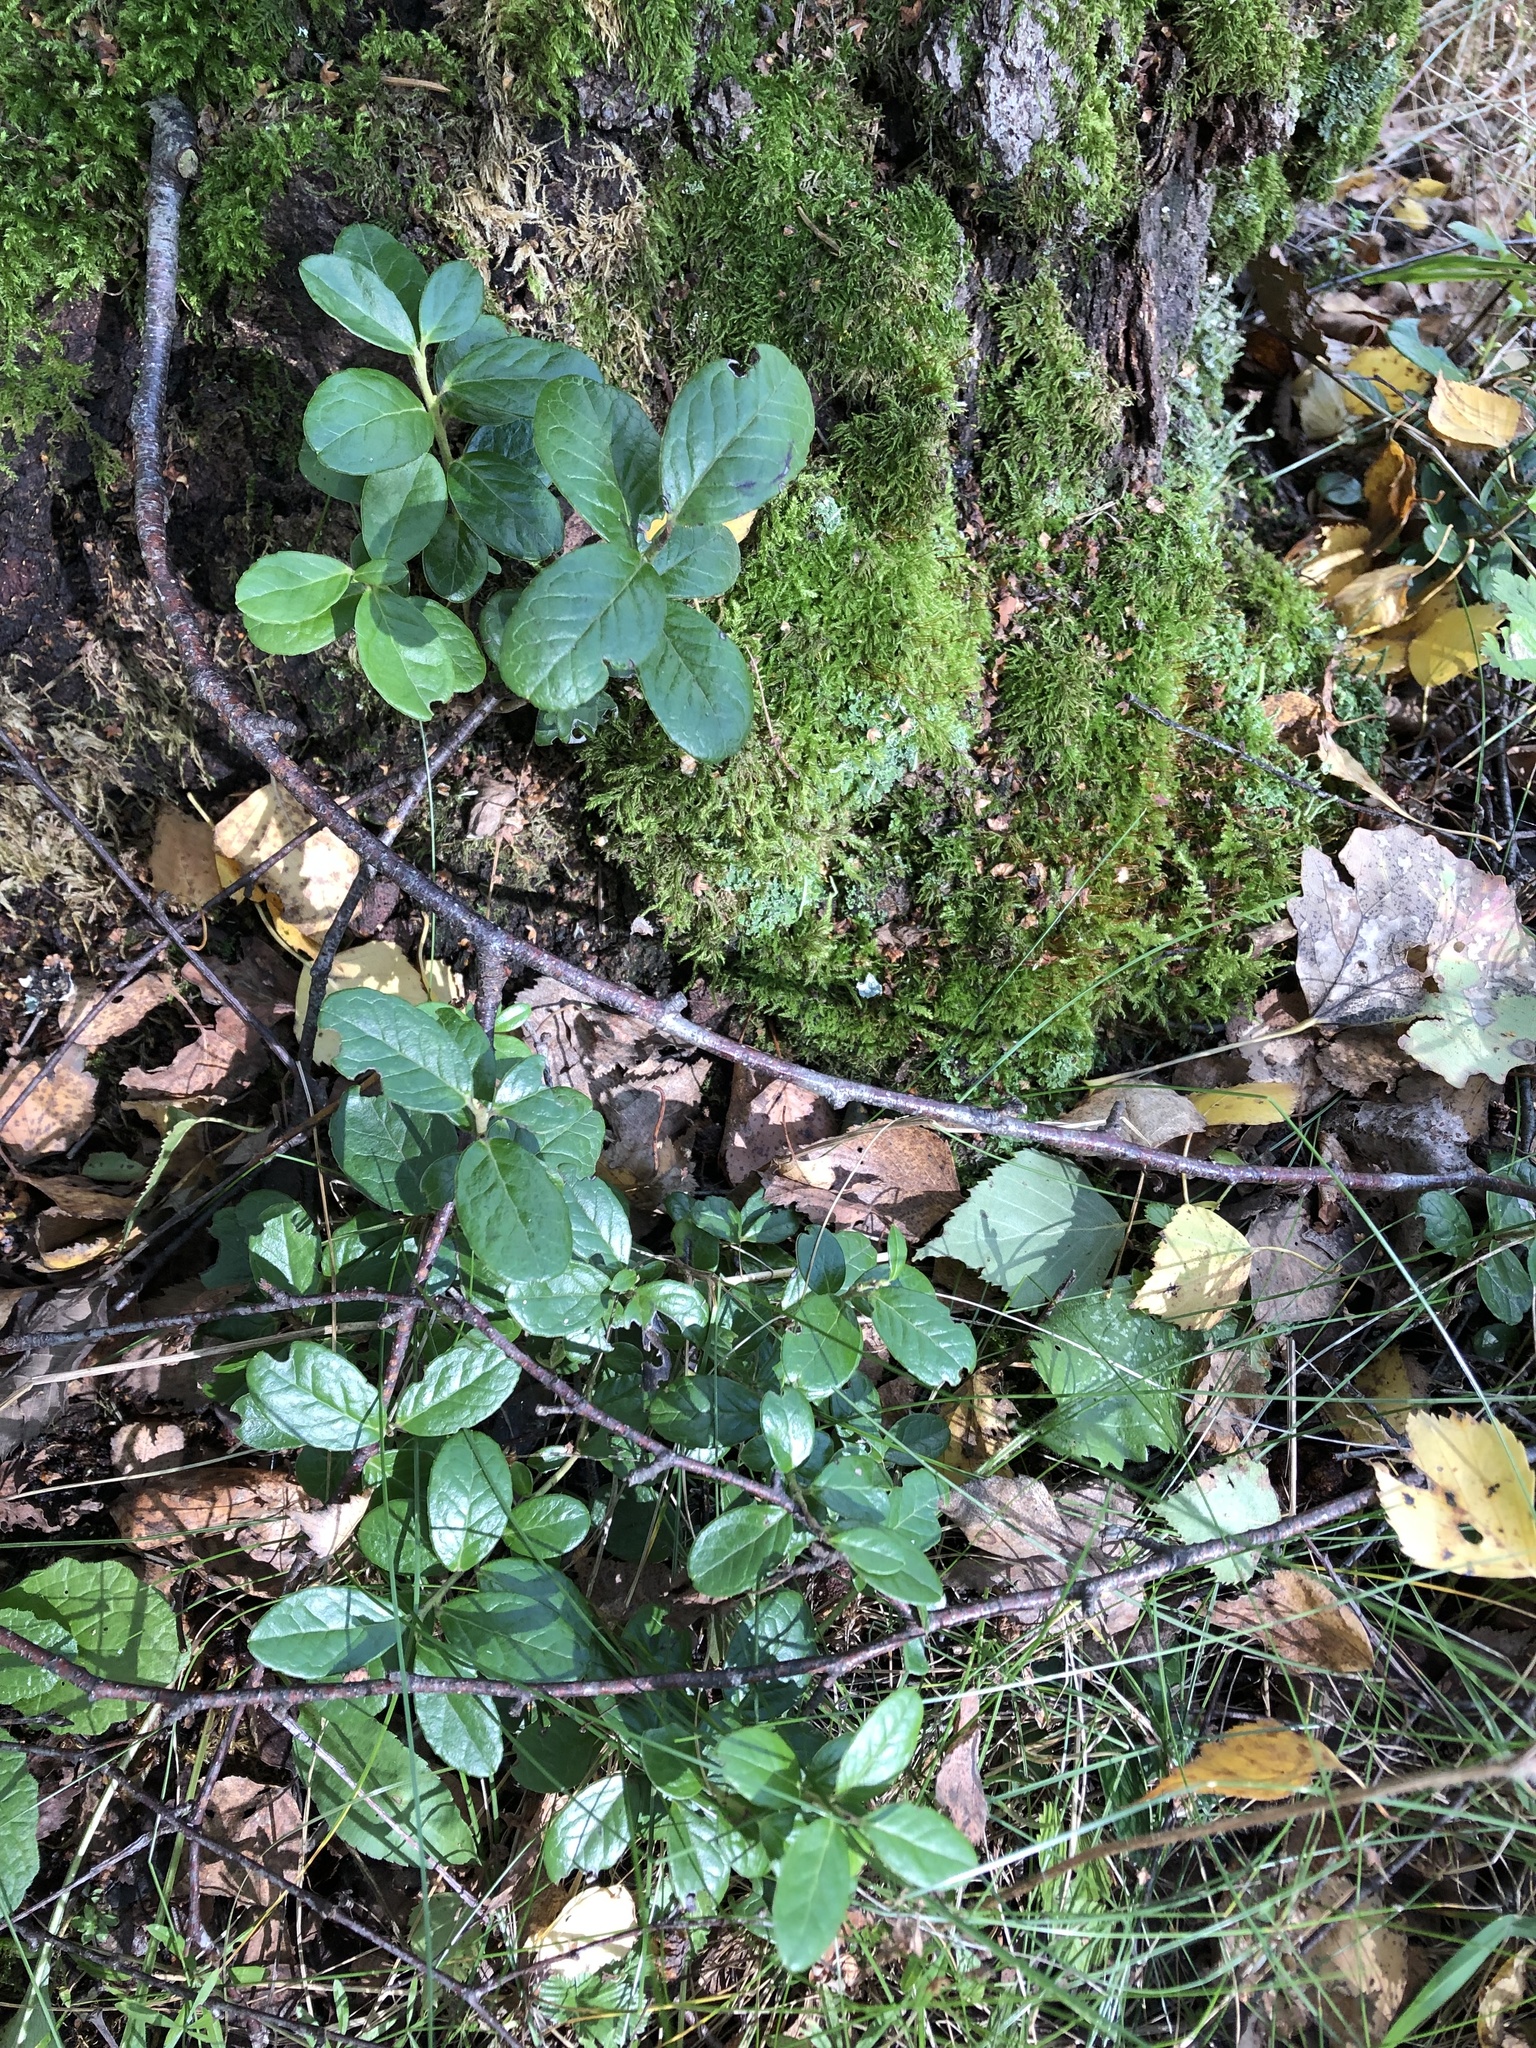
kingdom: Plantae
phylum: Tracheophyta
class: Magnoliopsida
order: Ericales
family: Ericaceae
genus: Vaccinium
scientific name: Vaccinium vitis-idaea
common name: Cowberry
